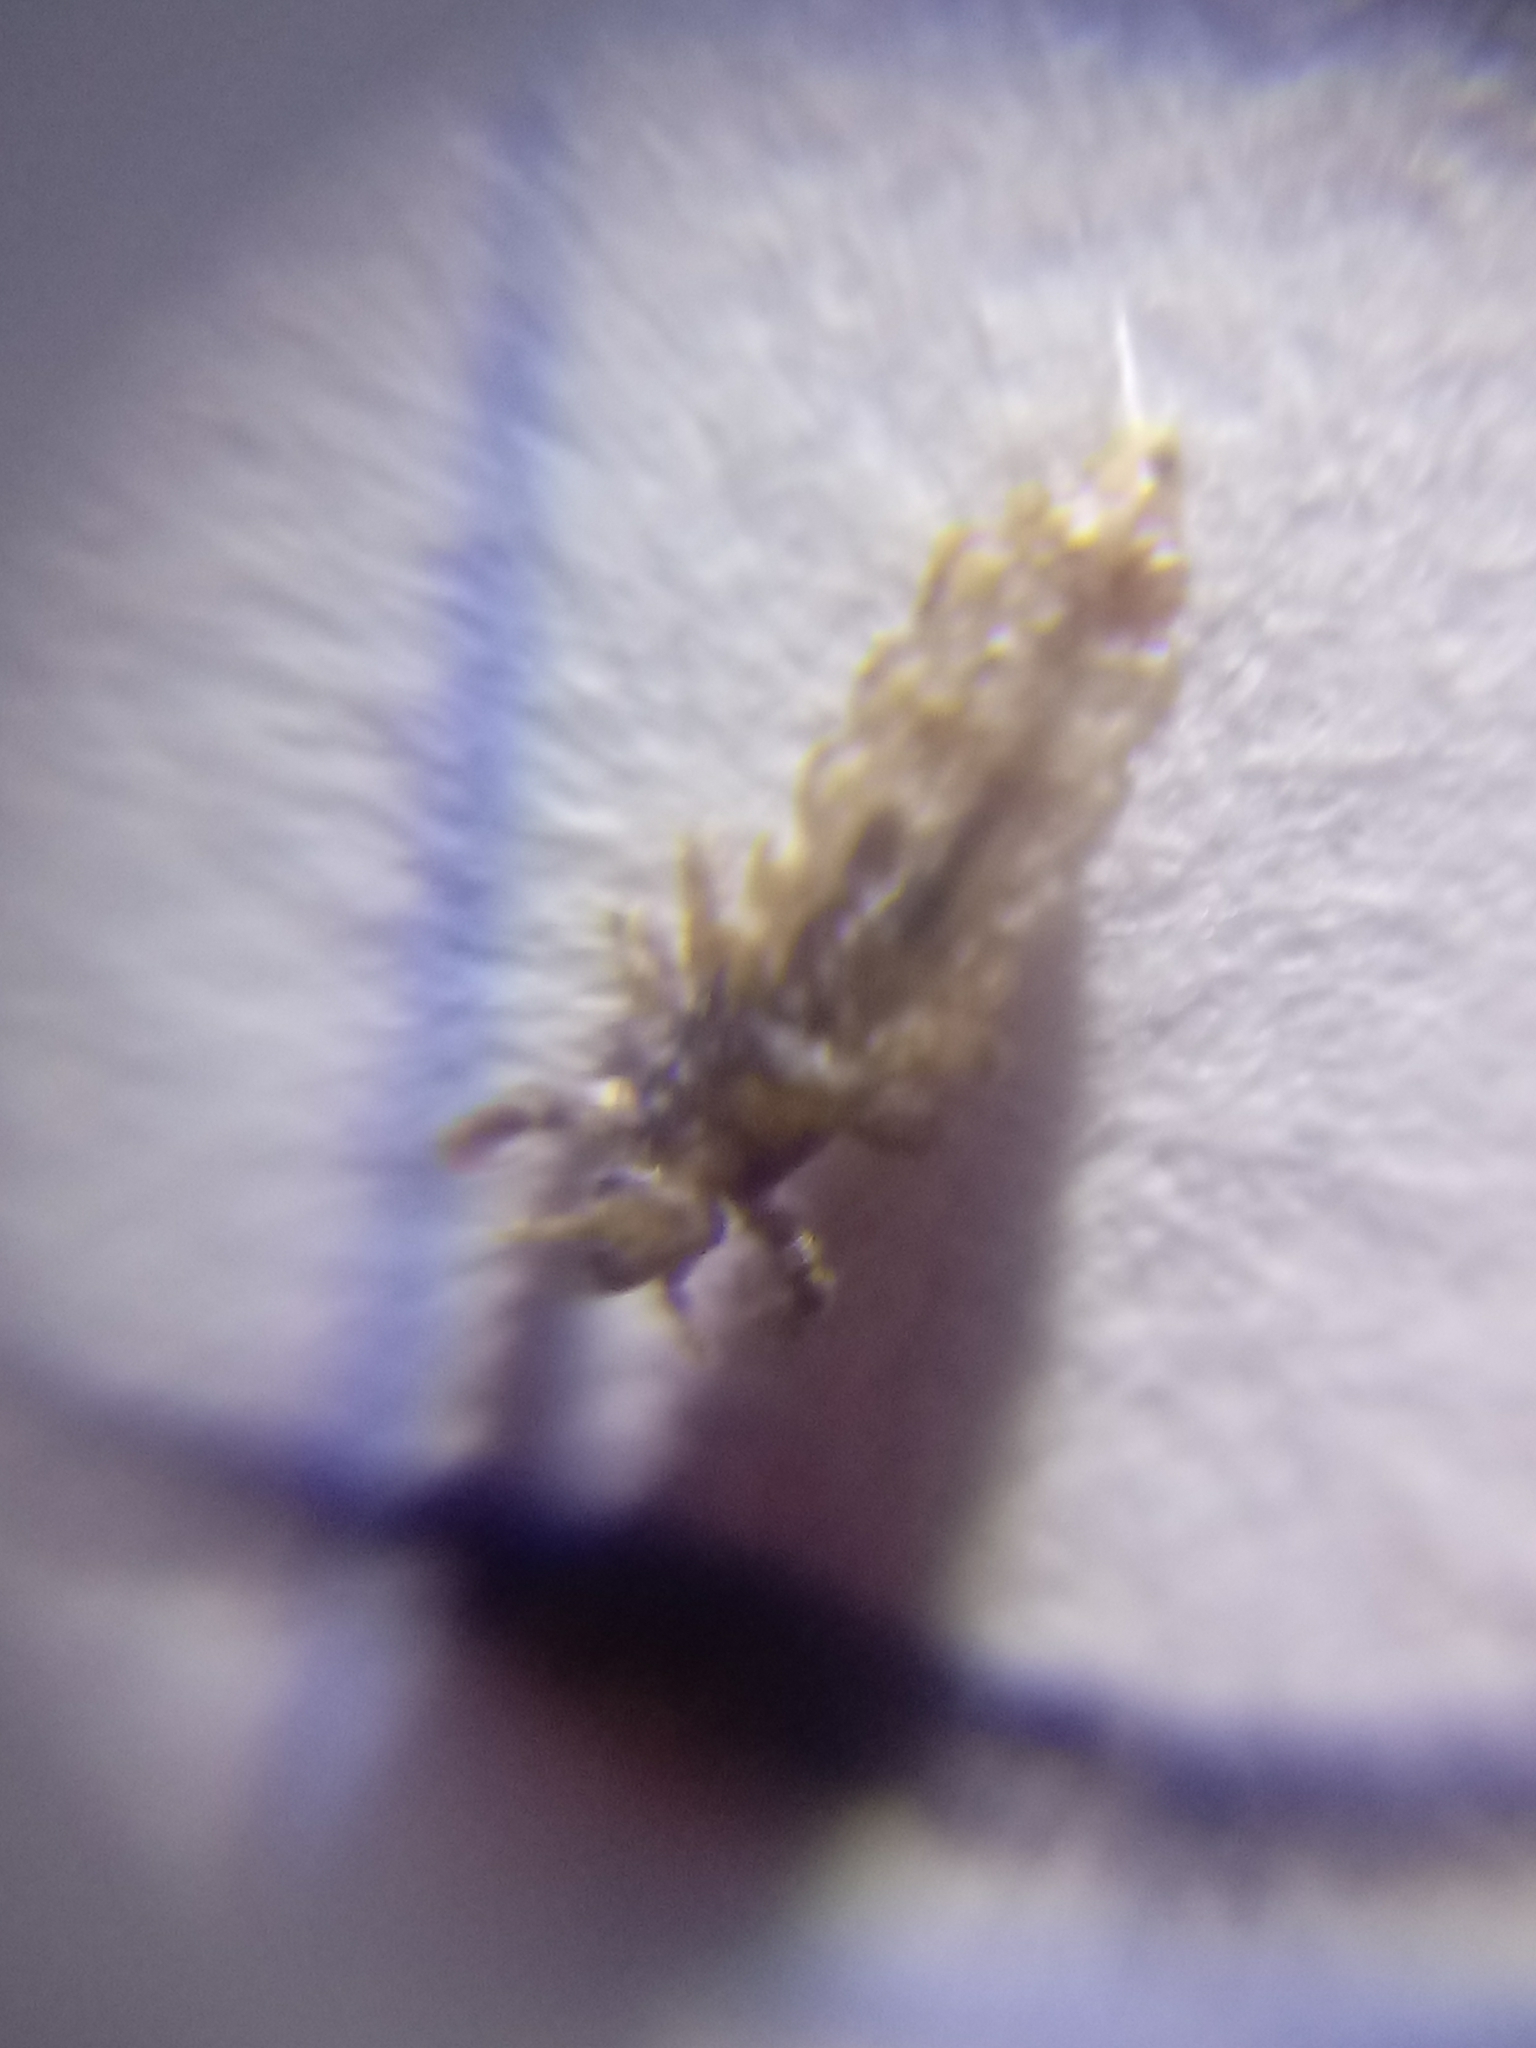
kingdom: Animalia
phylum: Arthropoda
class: Insecta
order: Psocodea
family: Pediculidae
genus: Pediculus
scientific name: Pediculus humanus
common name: Body louse
